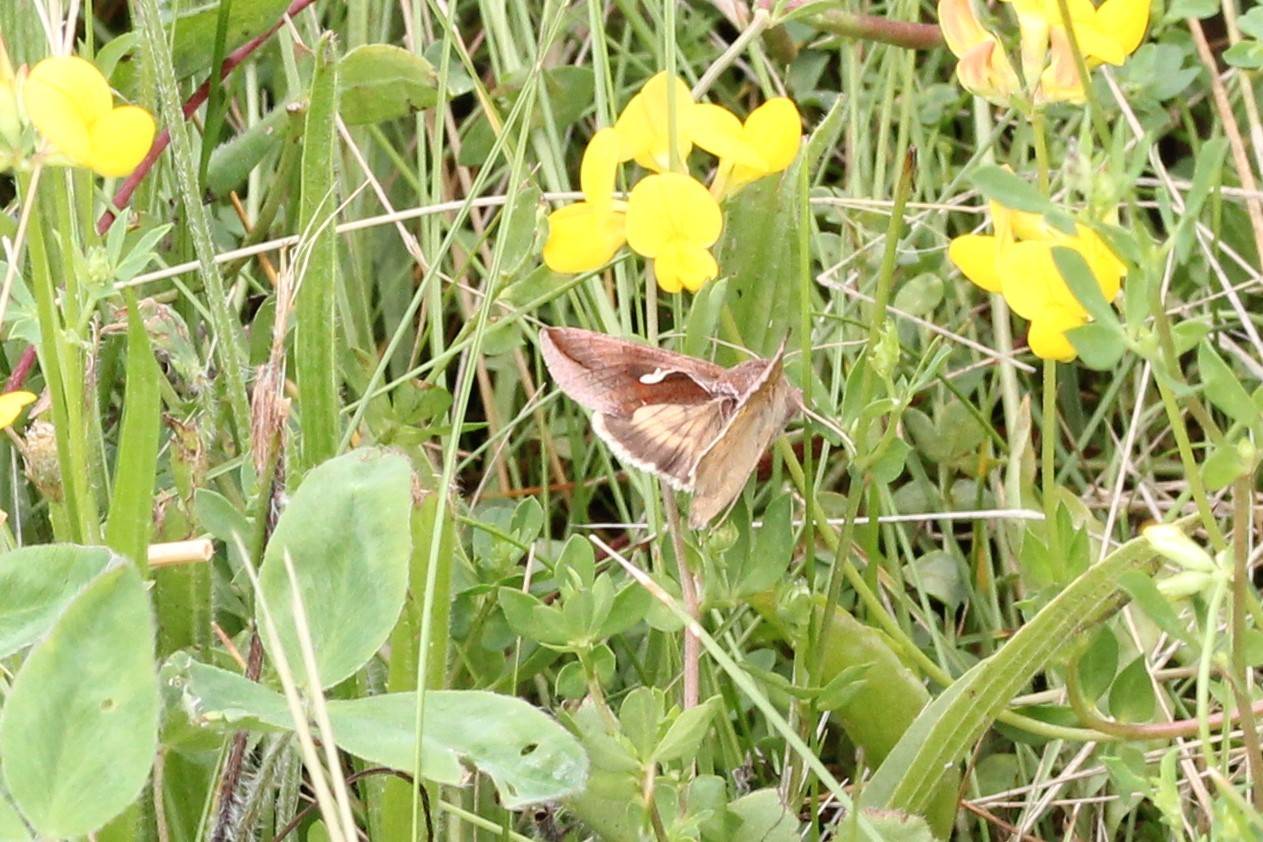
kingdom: Animalia
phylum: Arthropoda
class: Insecta
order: Lepidoptera
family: Noctuidae
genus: Anagrapha
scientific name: Anagrapha falcifera
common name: Celery looper
